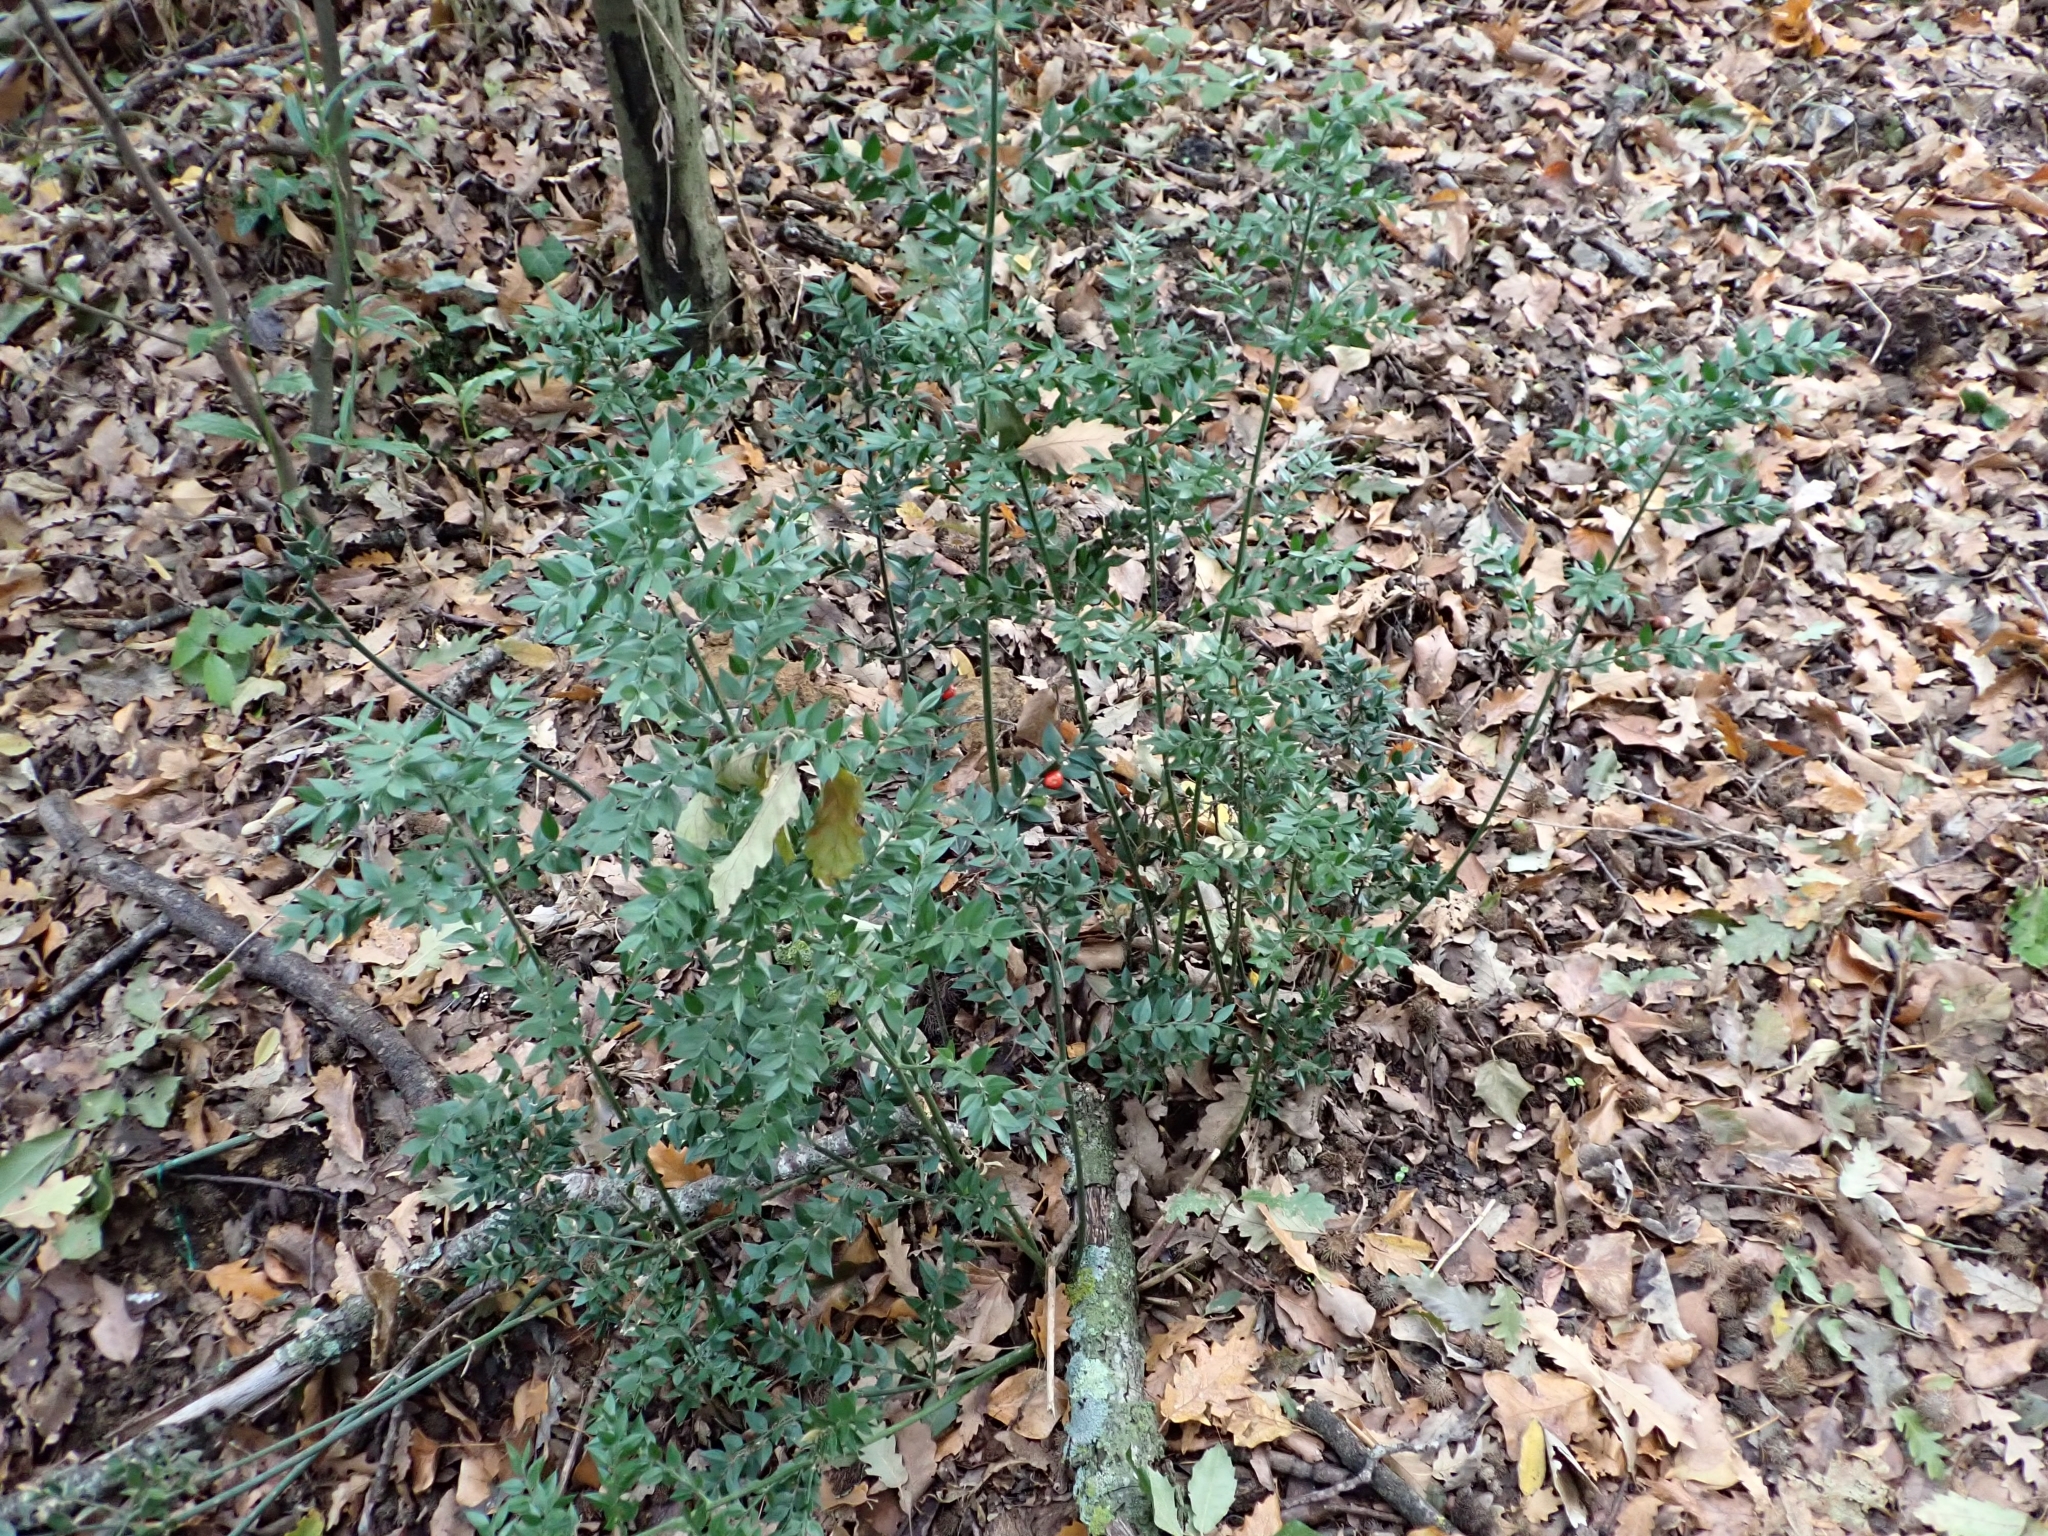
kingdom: Plantae
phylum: Tracheophyta
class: Liliopsida
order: Asparagales
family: Asparagaceae
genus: Ruscus
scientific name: Ruscus aculeatus
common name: Butcher's-broom
